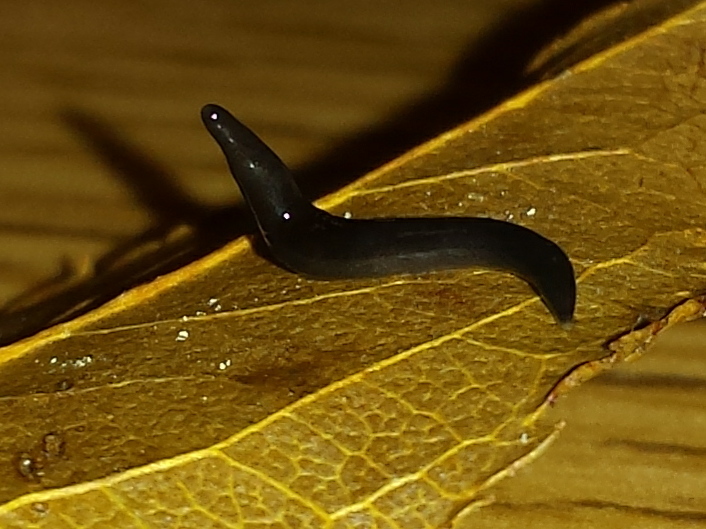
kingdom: Animalia
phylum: Platyhelminthes
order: Tricladida
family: Geoplanidae
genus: Microplana
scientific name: Microplana terrestris
